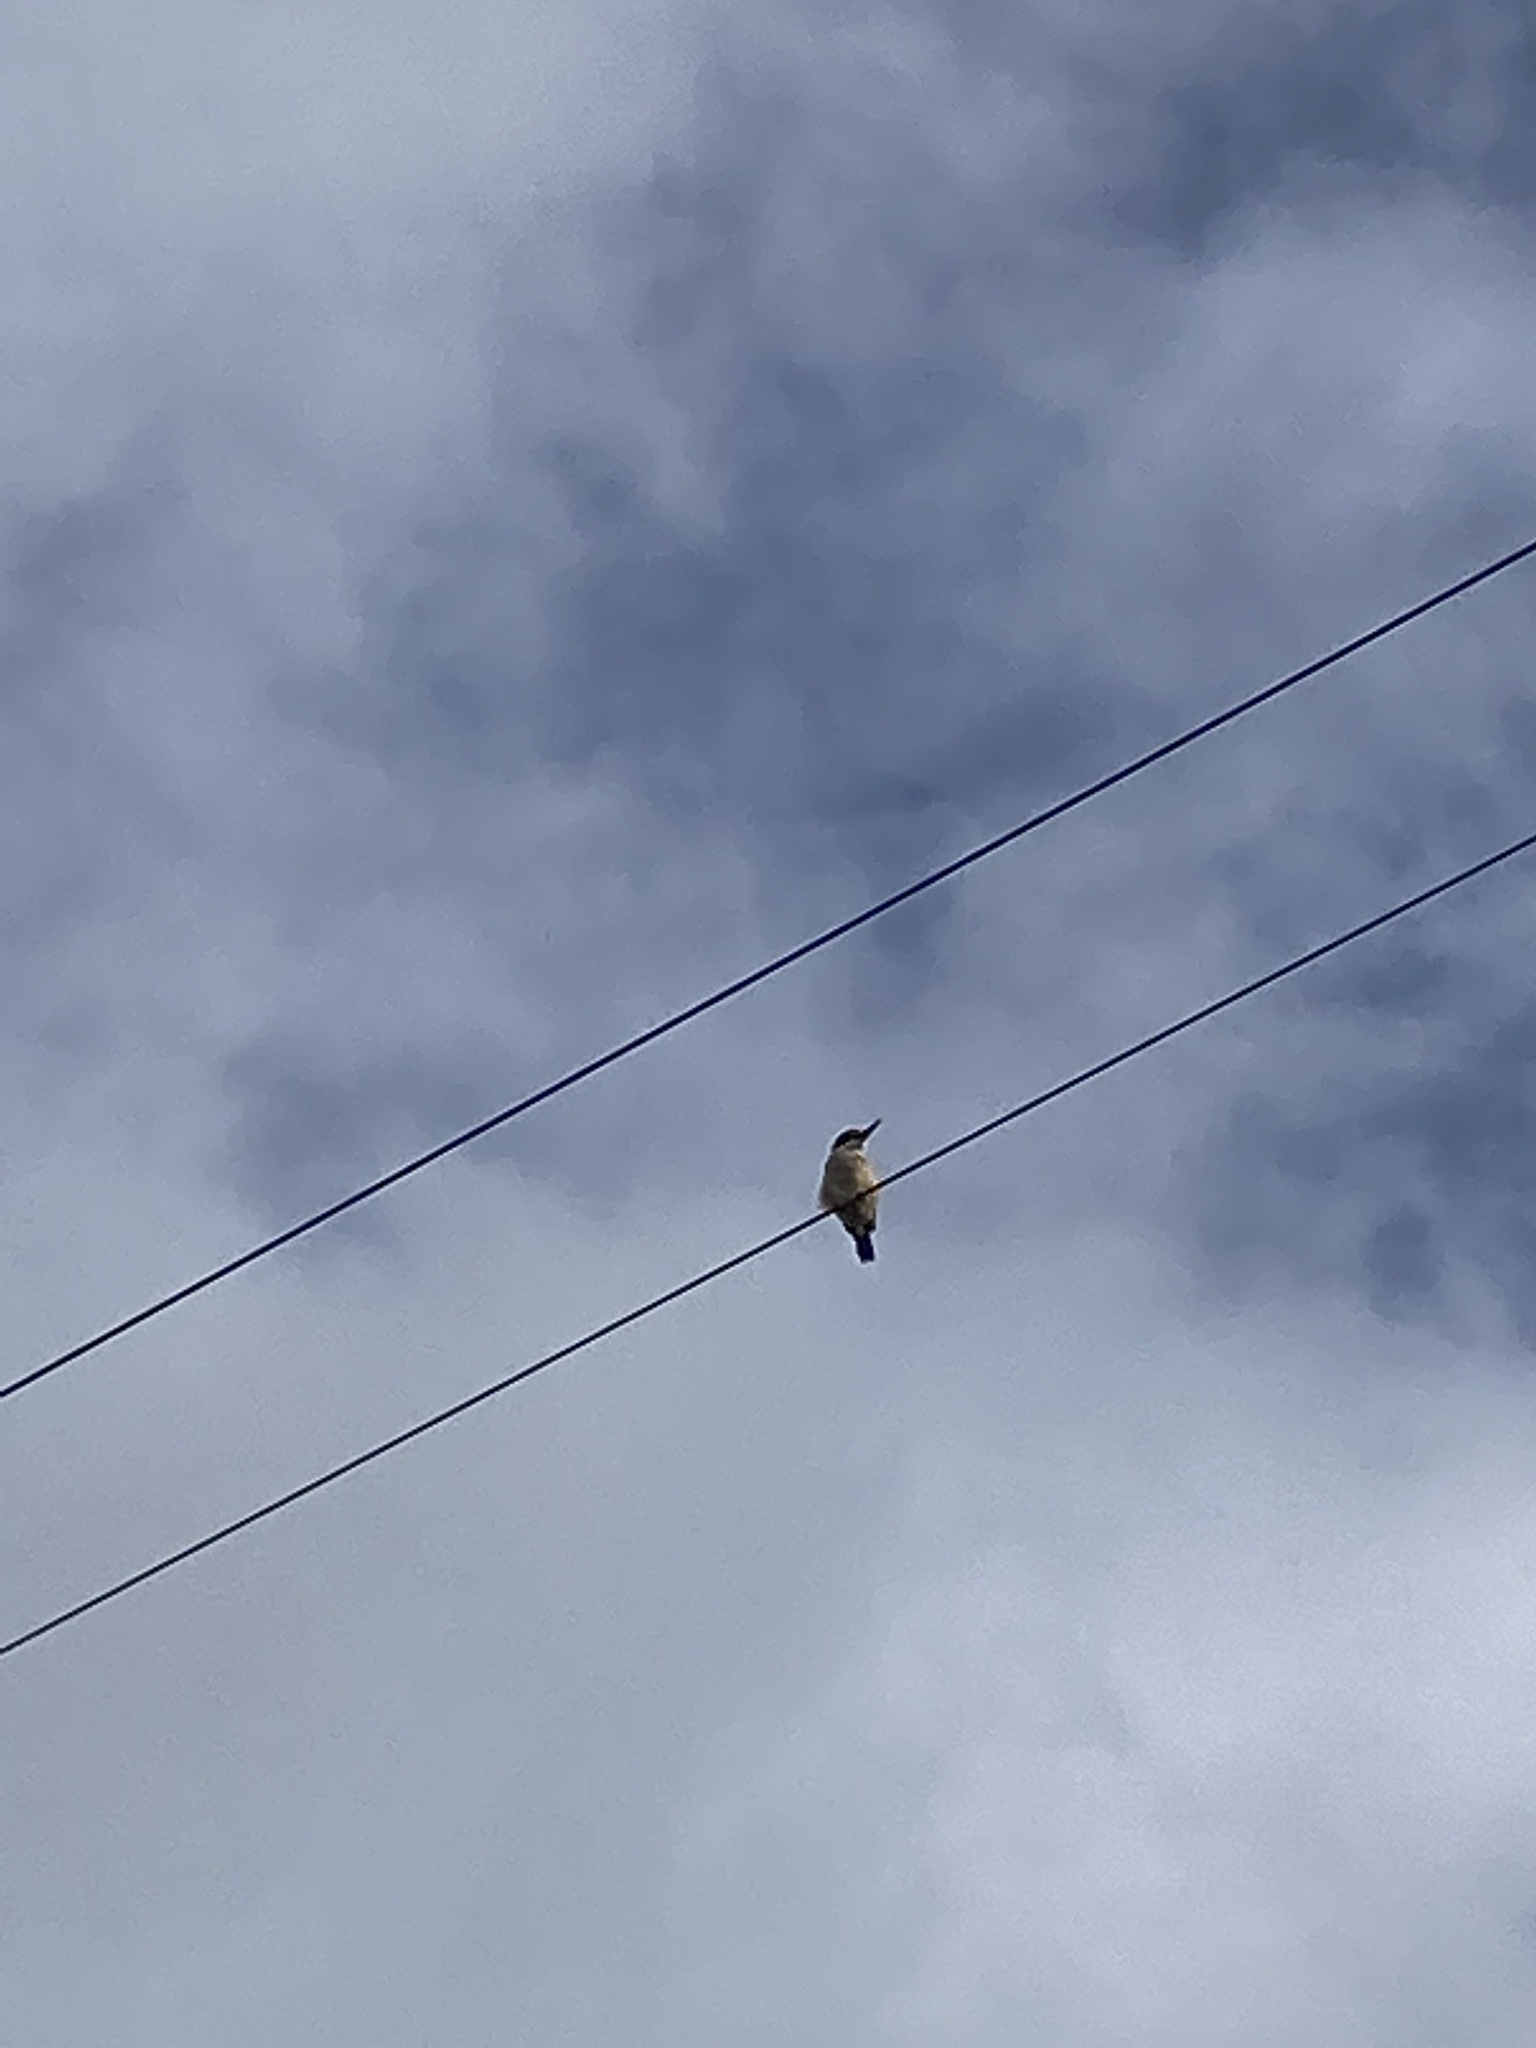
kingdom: Animalia
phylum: Chordata
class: Aves
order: Coraciiformes
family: Alcedinidae
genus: Todiramphus
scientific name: Todiramphus sanctus
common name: Sacred kingfisher
